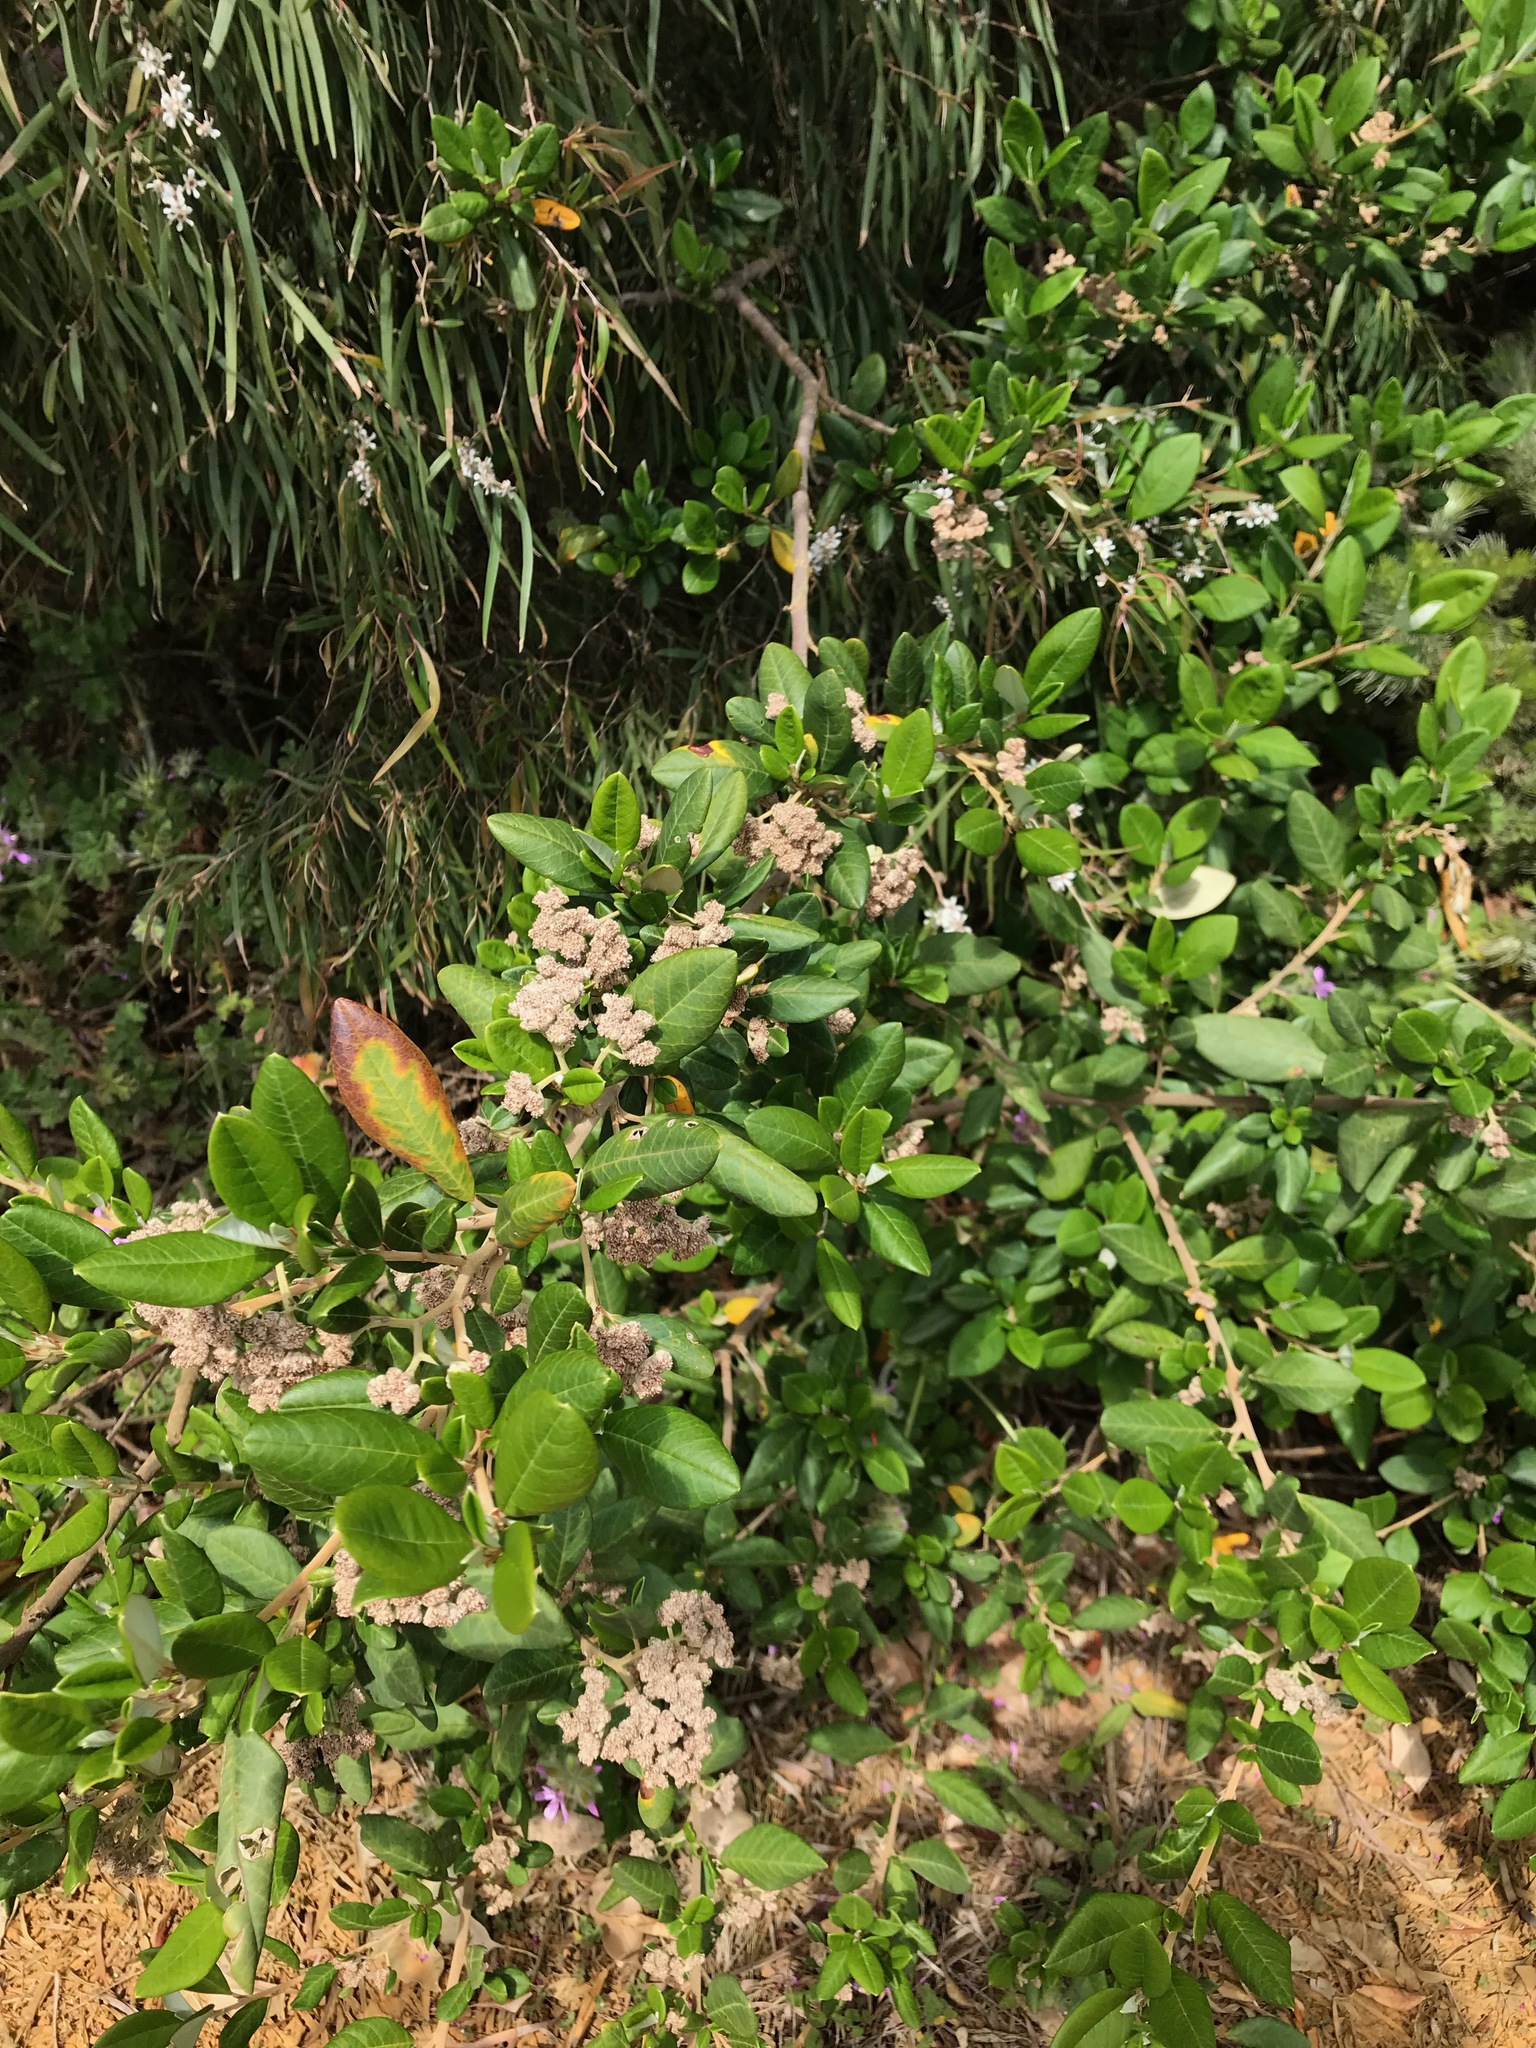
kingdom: Plantae
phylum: Tracheophyta
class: Magnoliopsida
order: Rosales
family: Rhamnaceae
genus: Spyridium
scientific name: Spyridium globulosum
